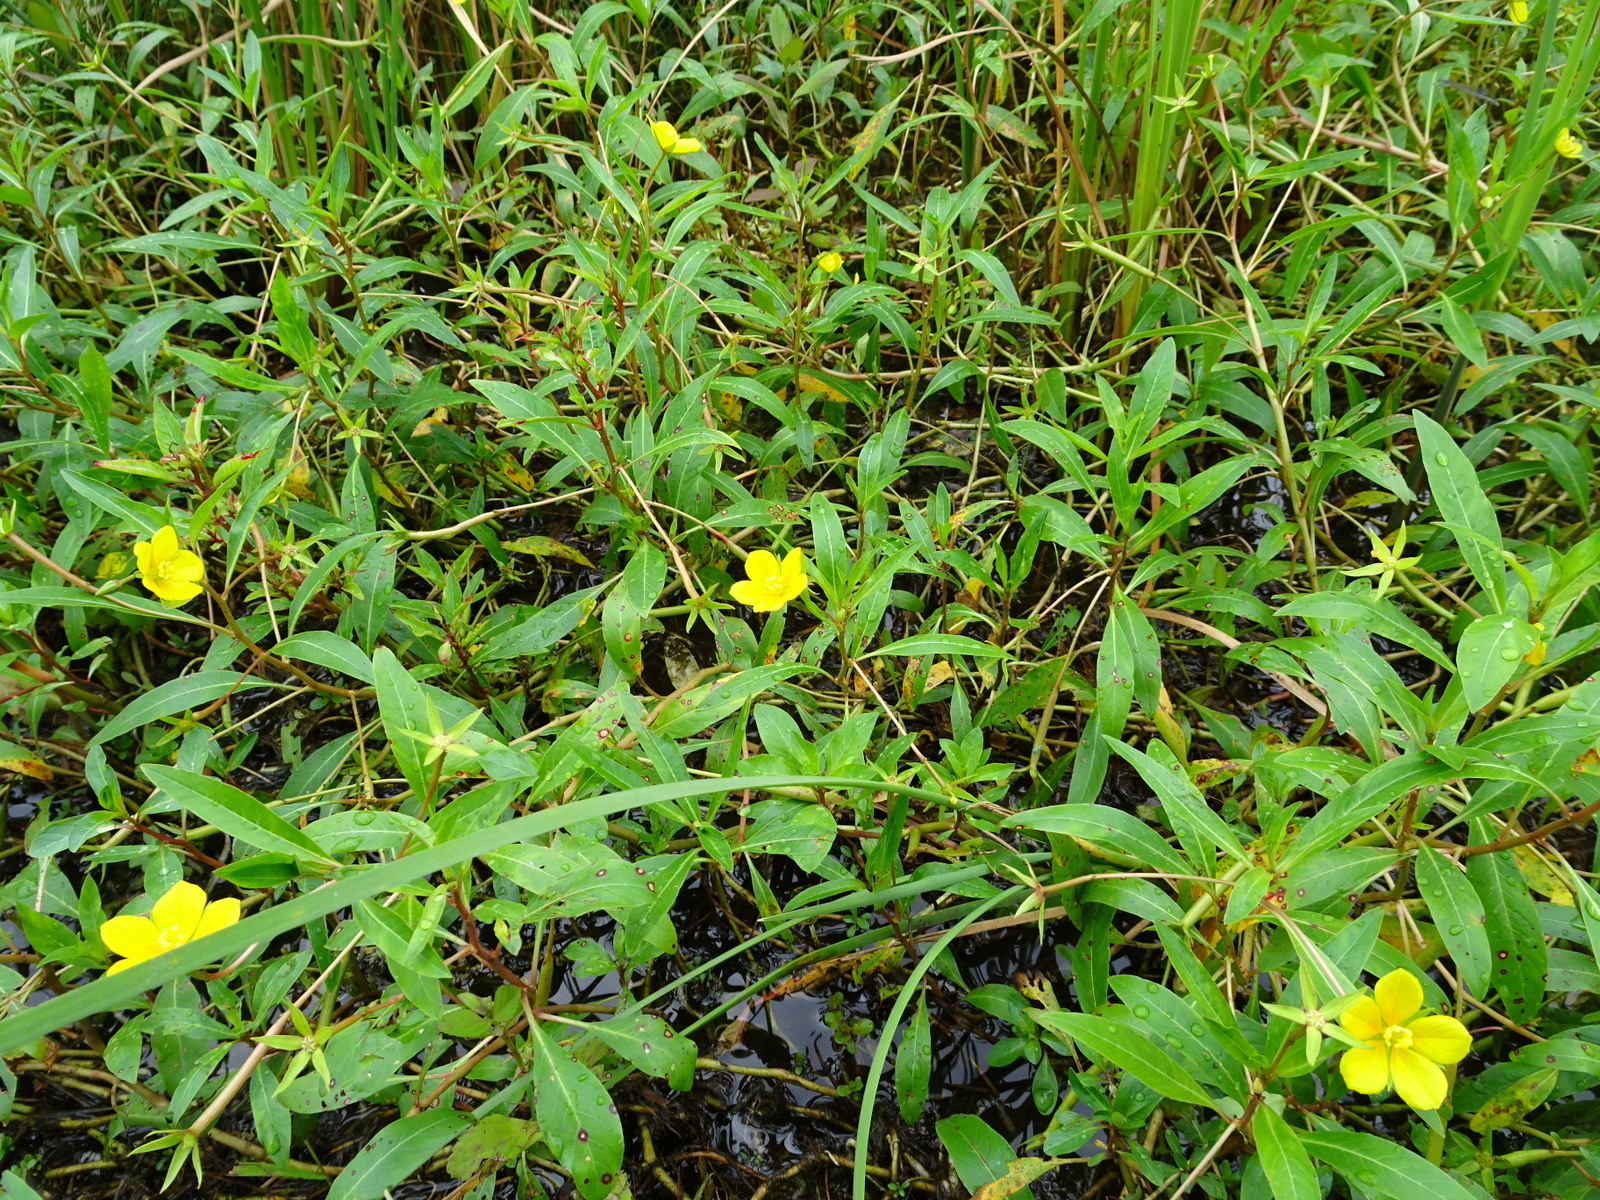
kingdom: Plantae
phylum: Tracheophyta
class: Magnoliopsida
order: Myrtales
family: Onagraceae
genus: Ludwigia
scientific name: Ludwigia peploides
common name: Floating primrose-willow
